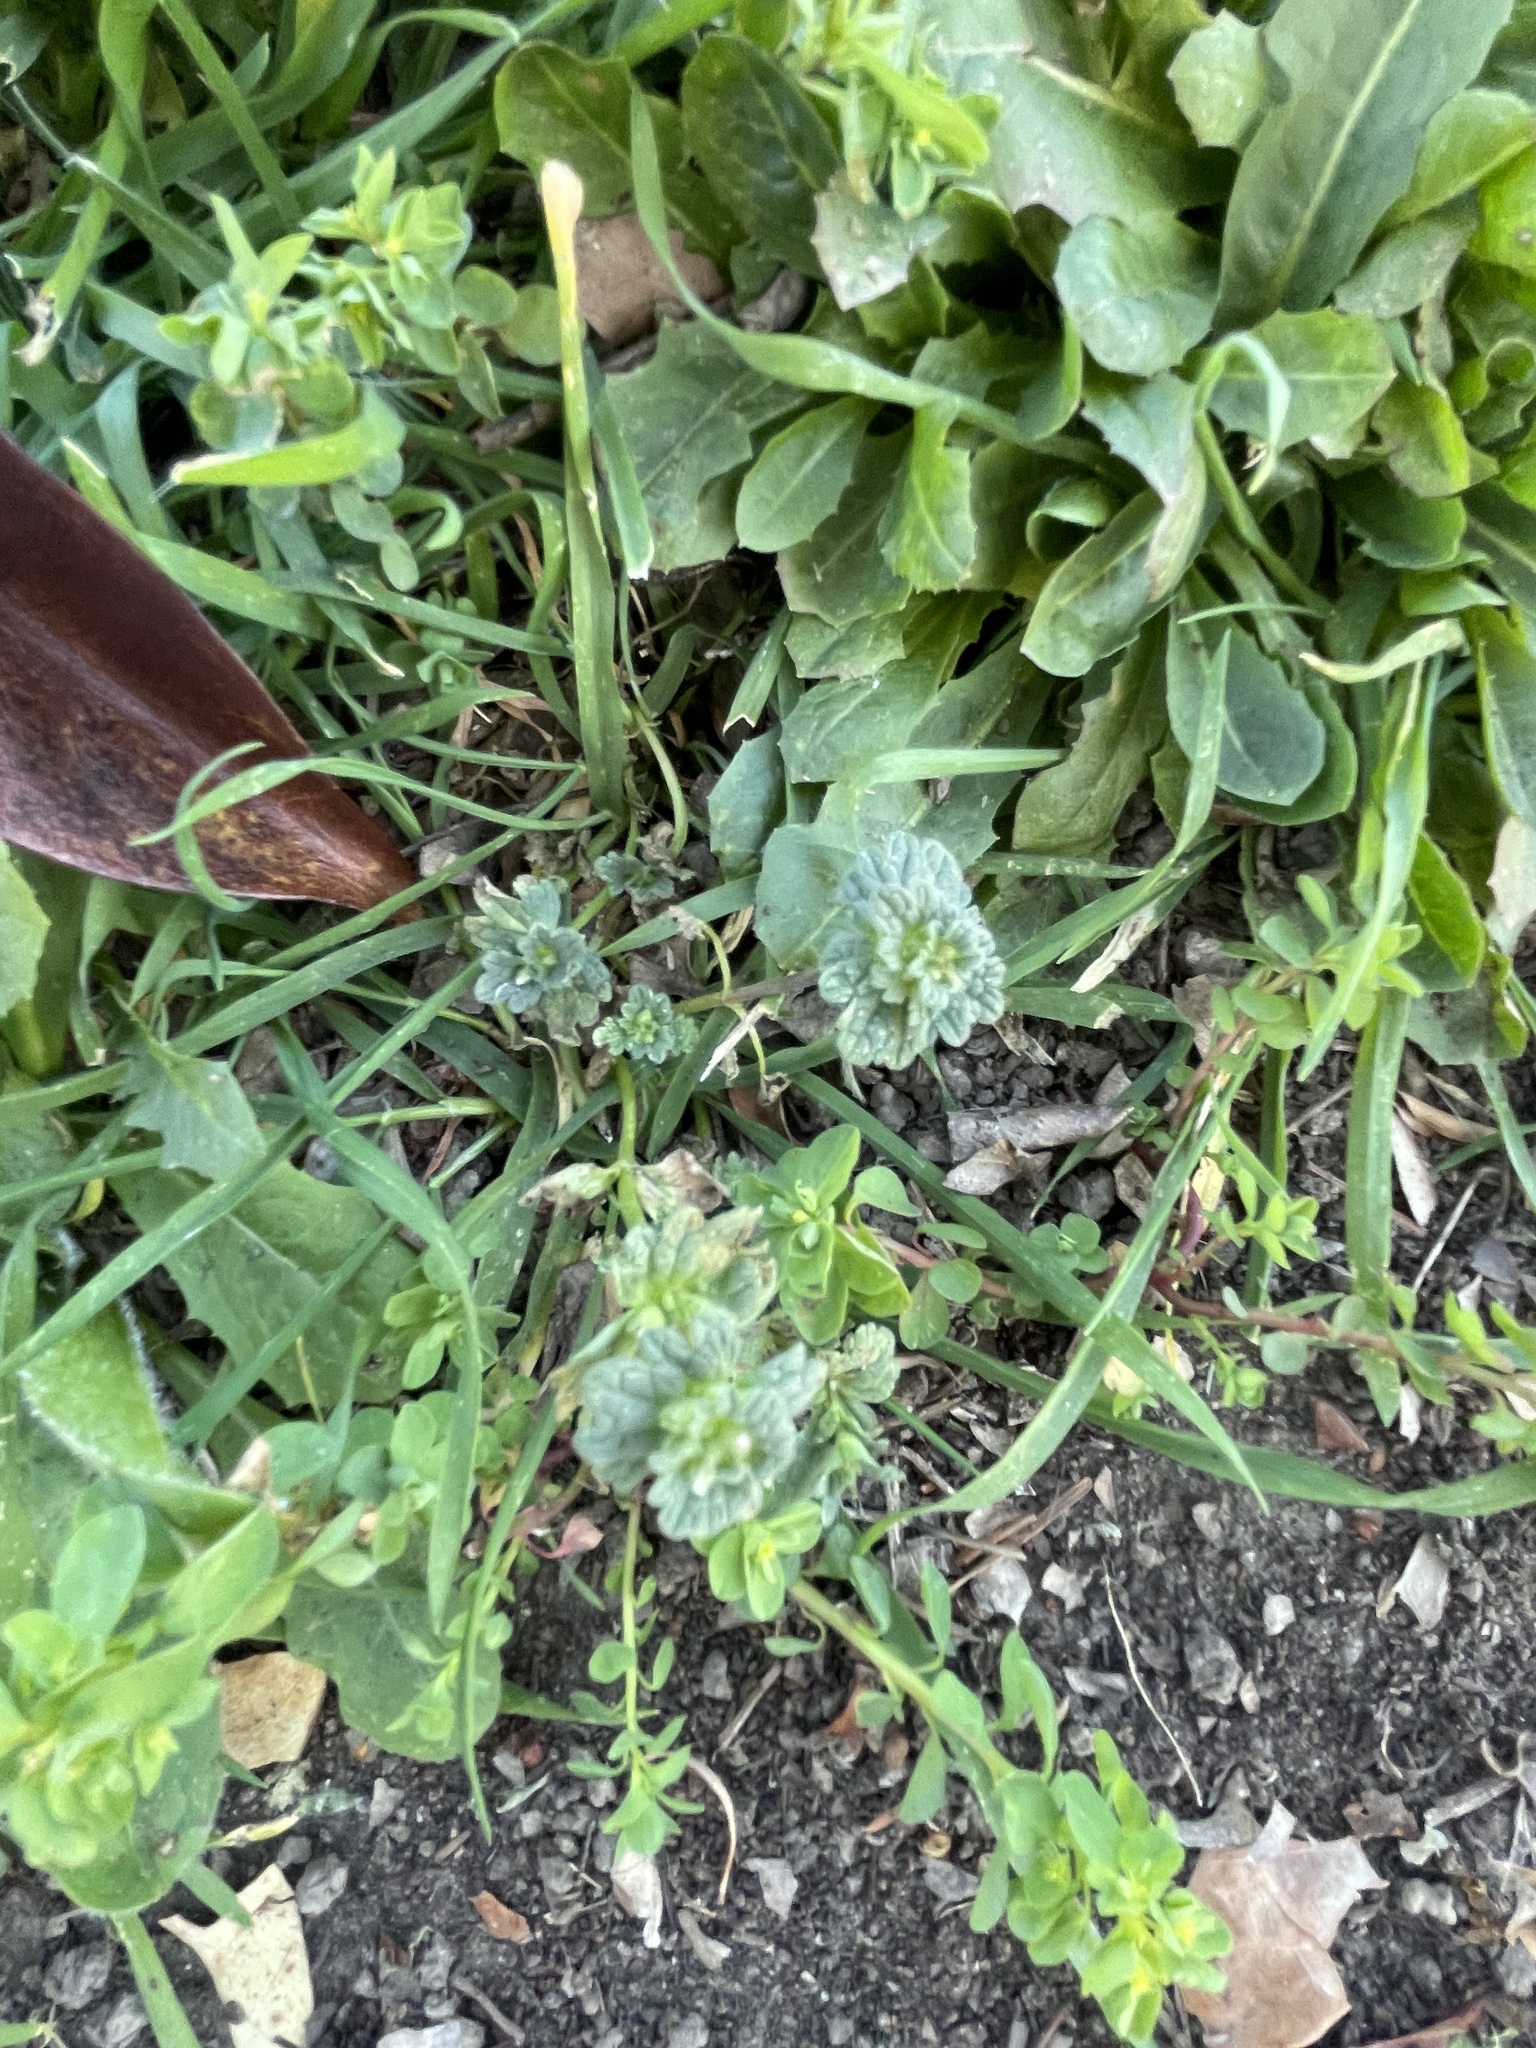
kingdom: Plantae
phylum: Tracheophyta
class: Magnoliopsida
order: Lamiales
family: Lamiaceae
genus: Lamium
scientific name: Lamium amplexicaule
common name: Henbit dead-nettle
